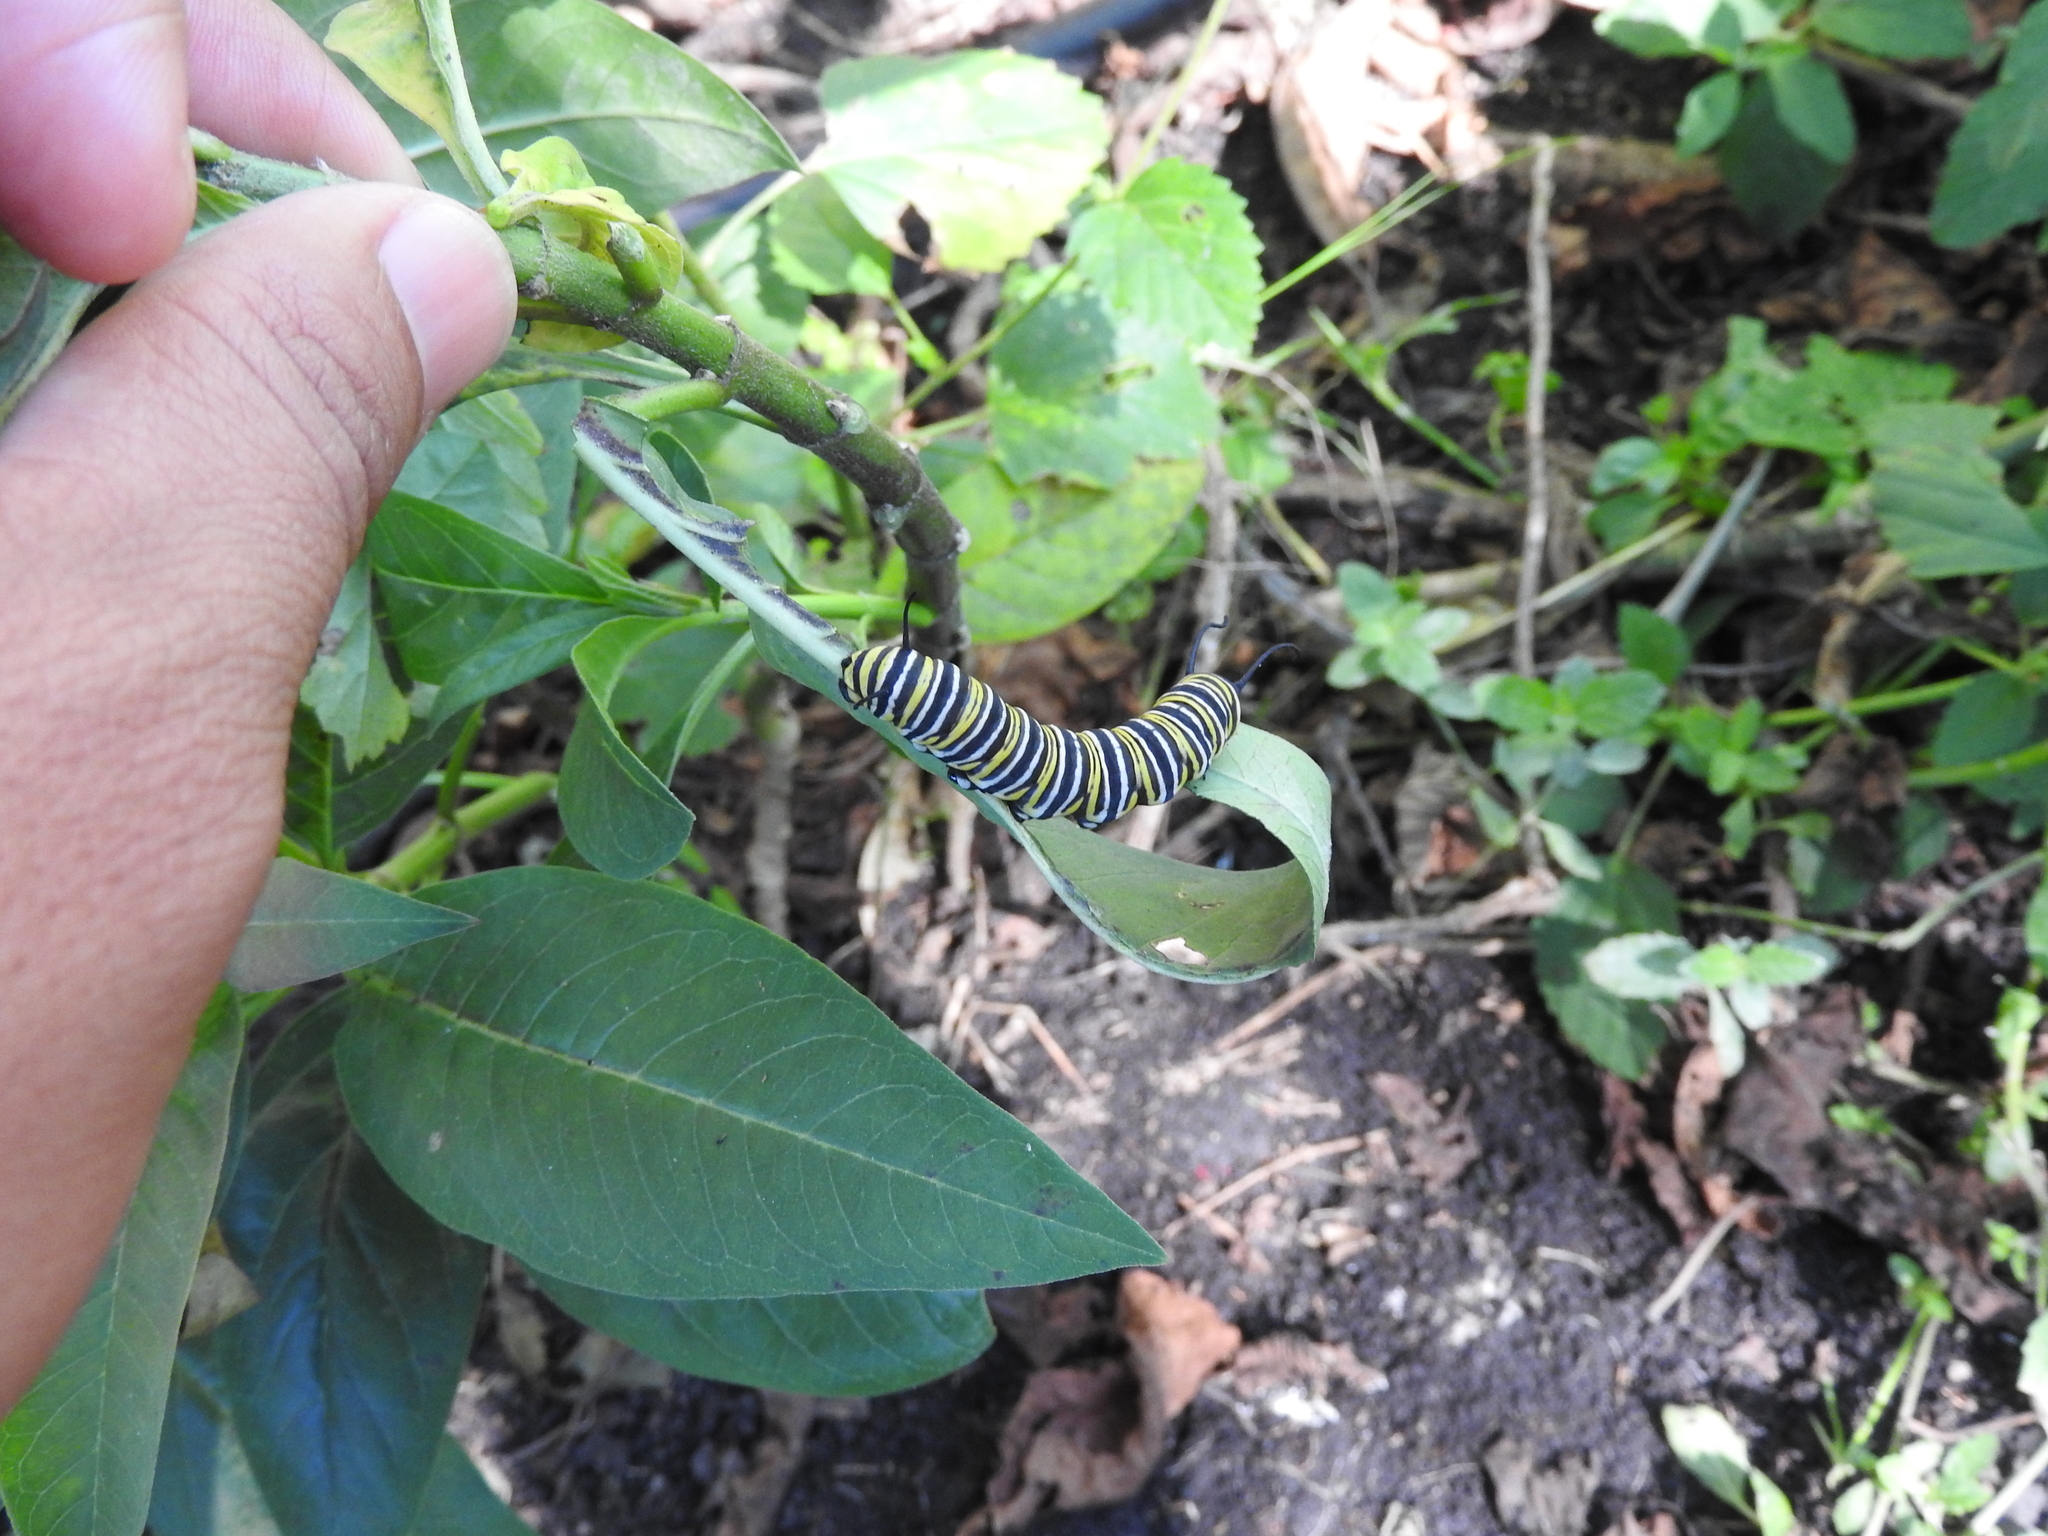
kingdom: Animalia
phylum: Arthropoda
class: Insecta
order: Lepidoptera
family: Nymphalidae
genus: Danaus
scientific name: Danaus plexippus
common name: Monarch
